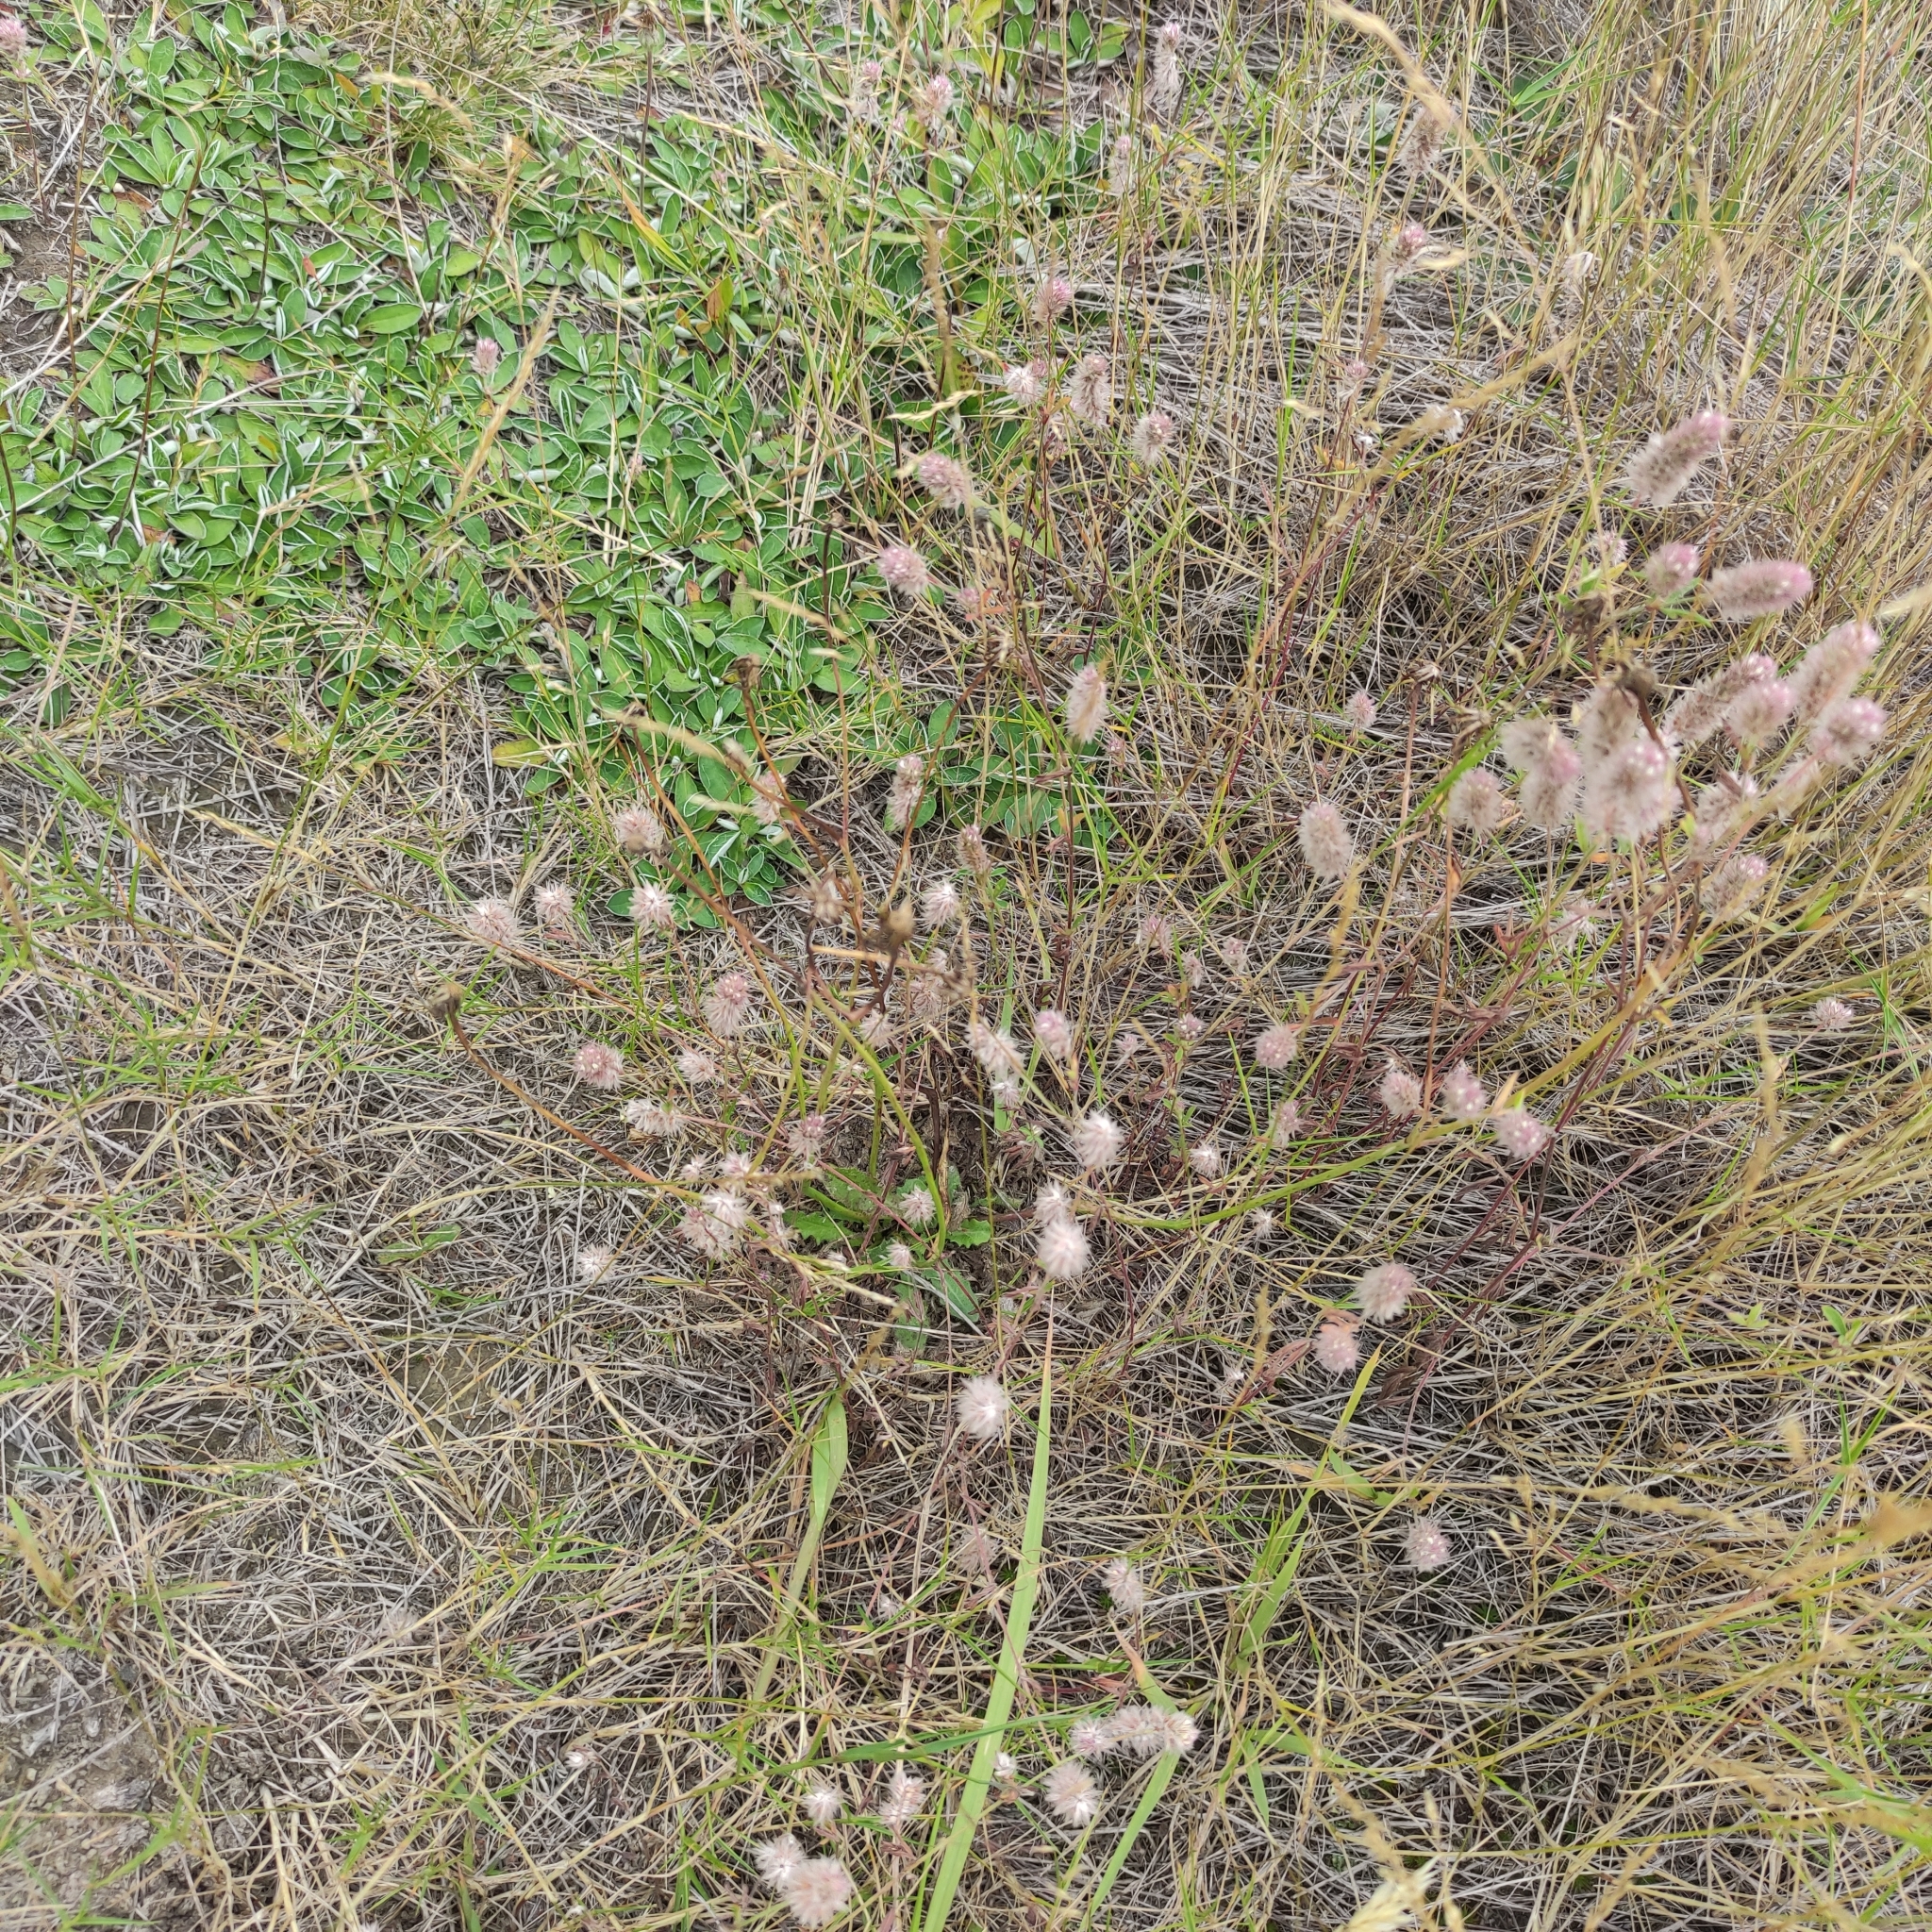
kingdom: Plantae
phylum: Tracheophyta
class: Magnoliopsida
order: Fabales
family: Fabaceae
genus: Trifolium
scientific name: Trifolium arvense
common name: Hare's-foot clover
